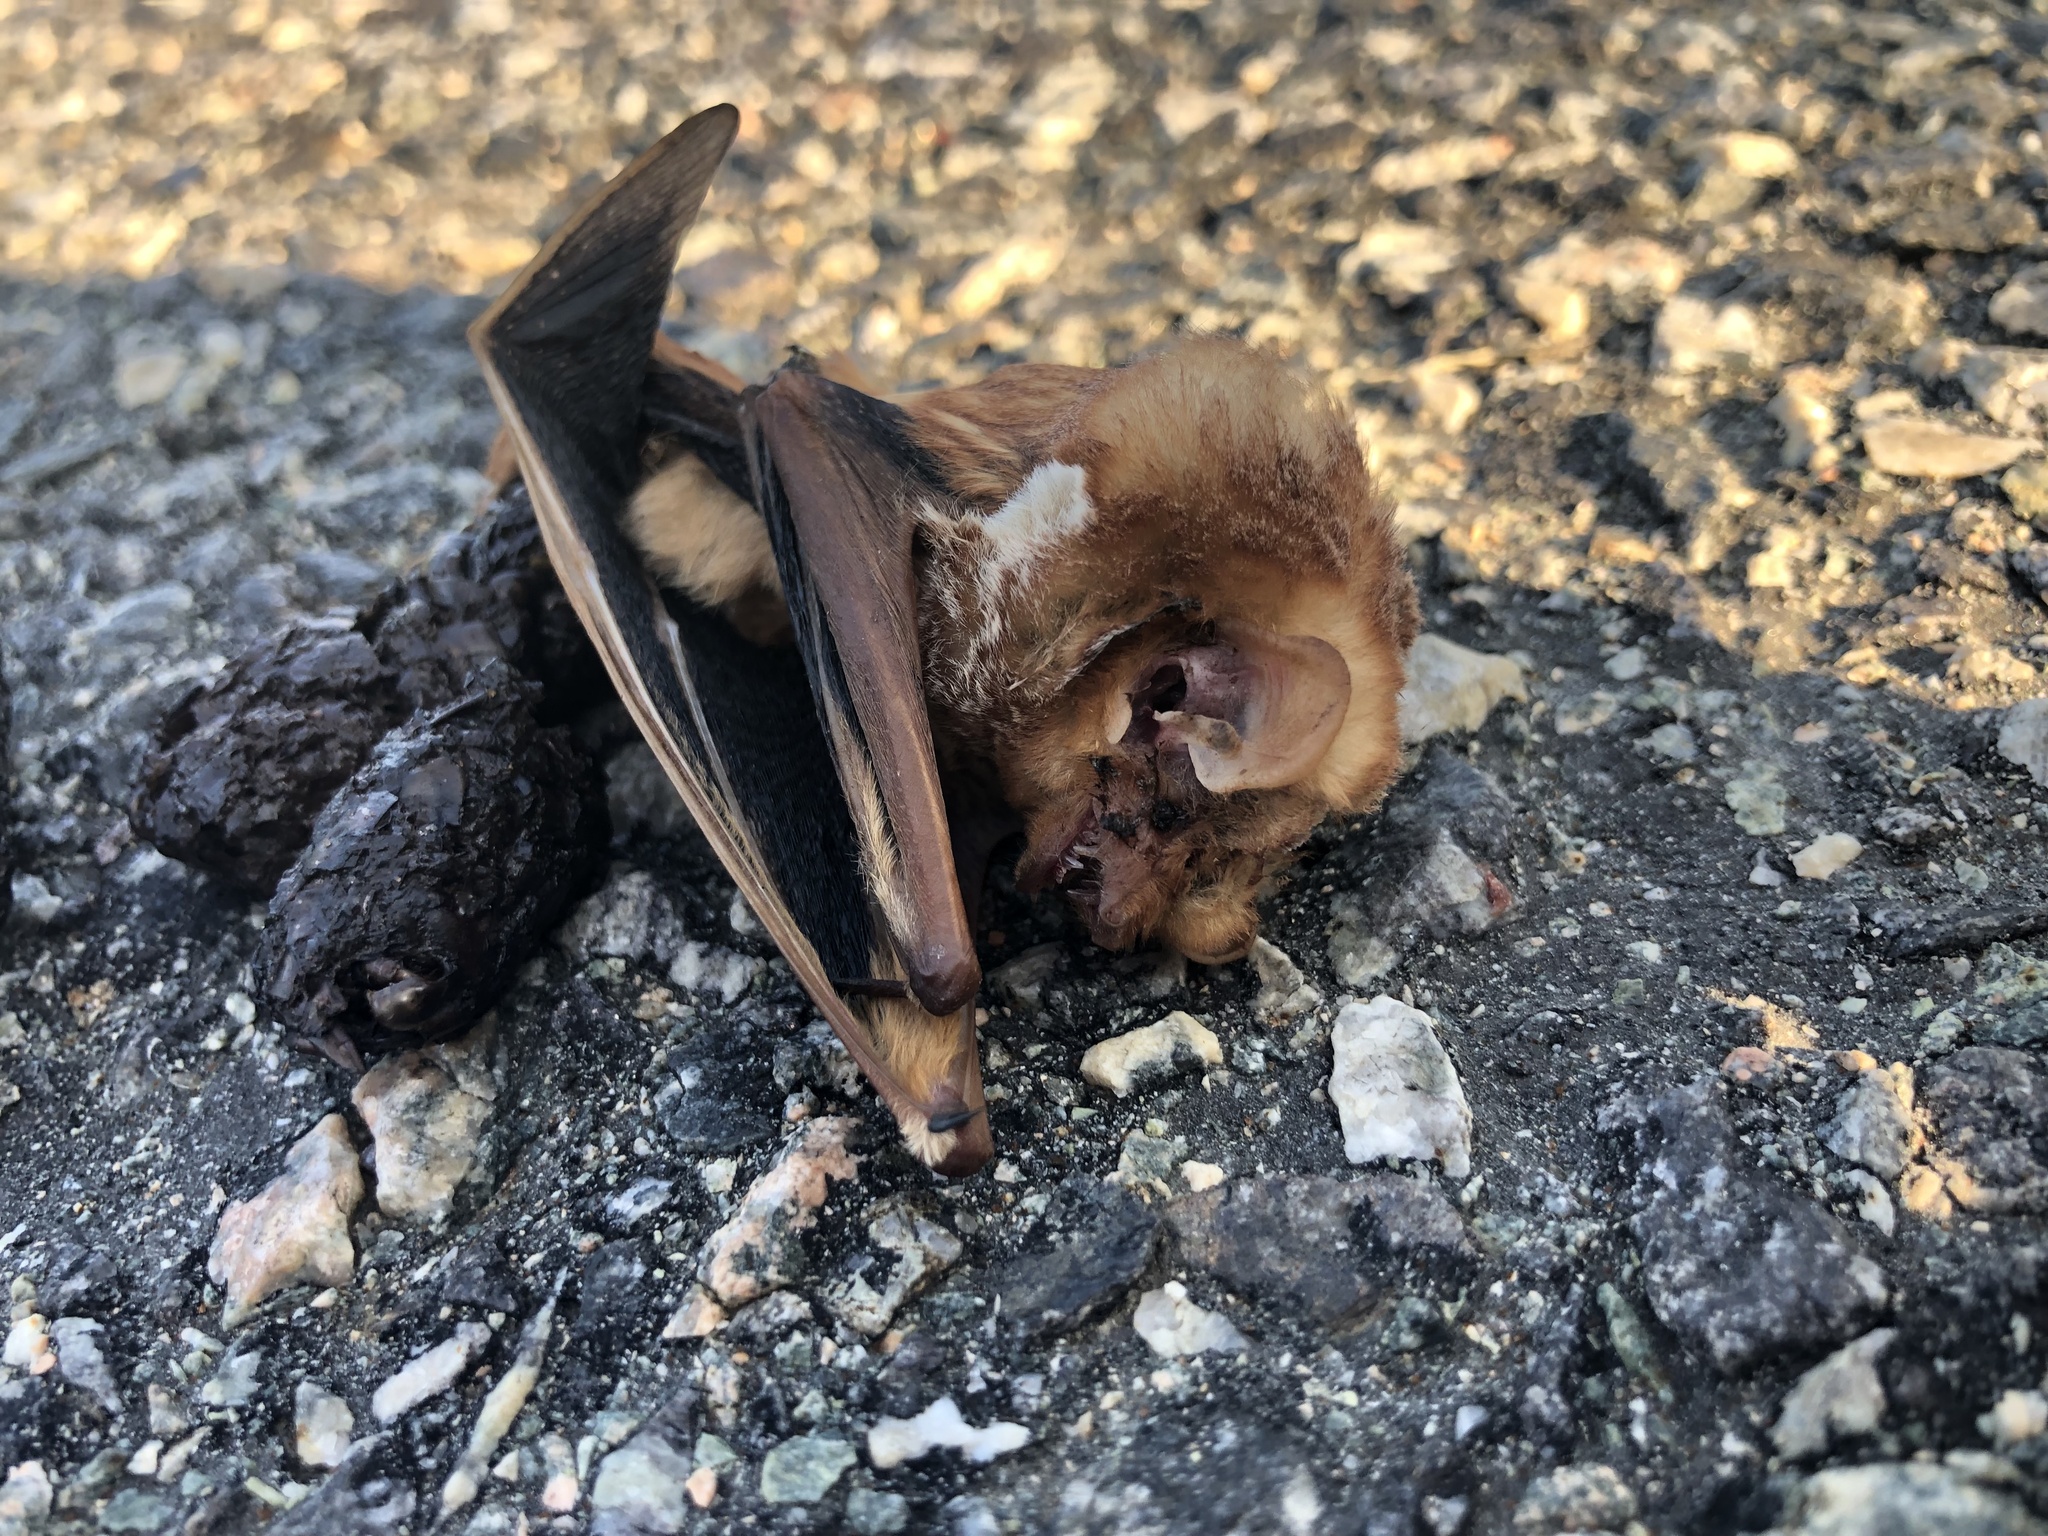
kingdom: Animalia
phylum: Chordata
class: Mammalia
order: Chiroptera
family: Vespertilionidae
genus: Lasiurus
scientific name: Lasiurus borealis
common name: Eastern red bat
